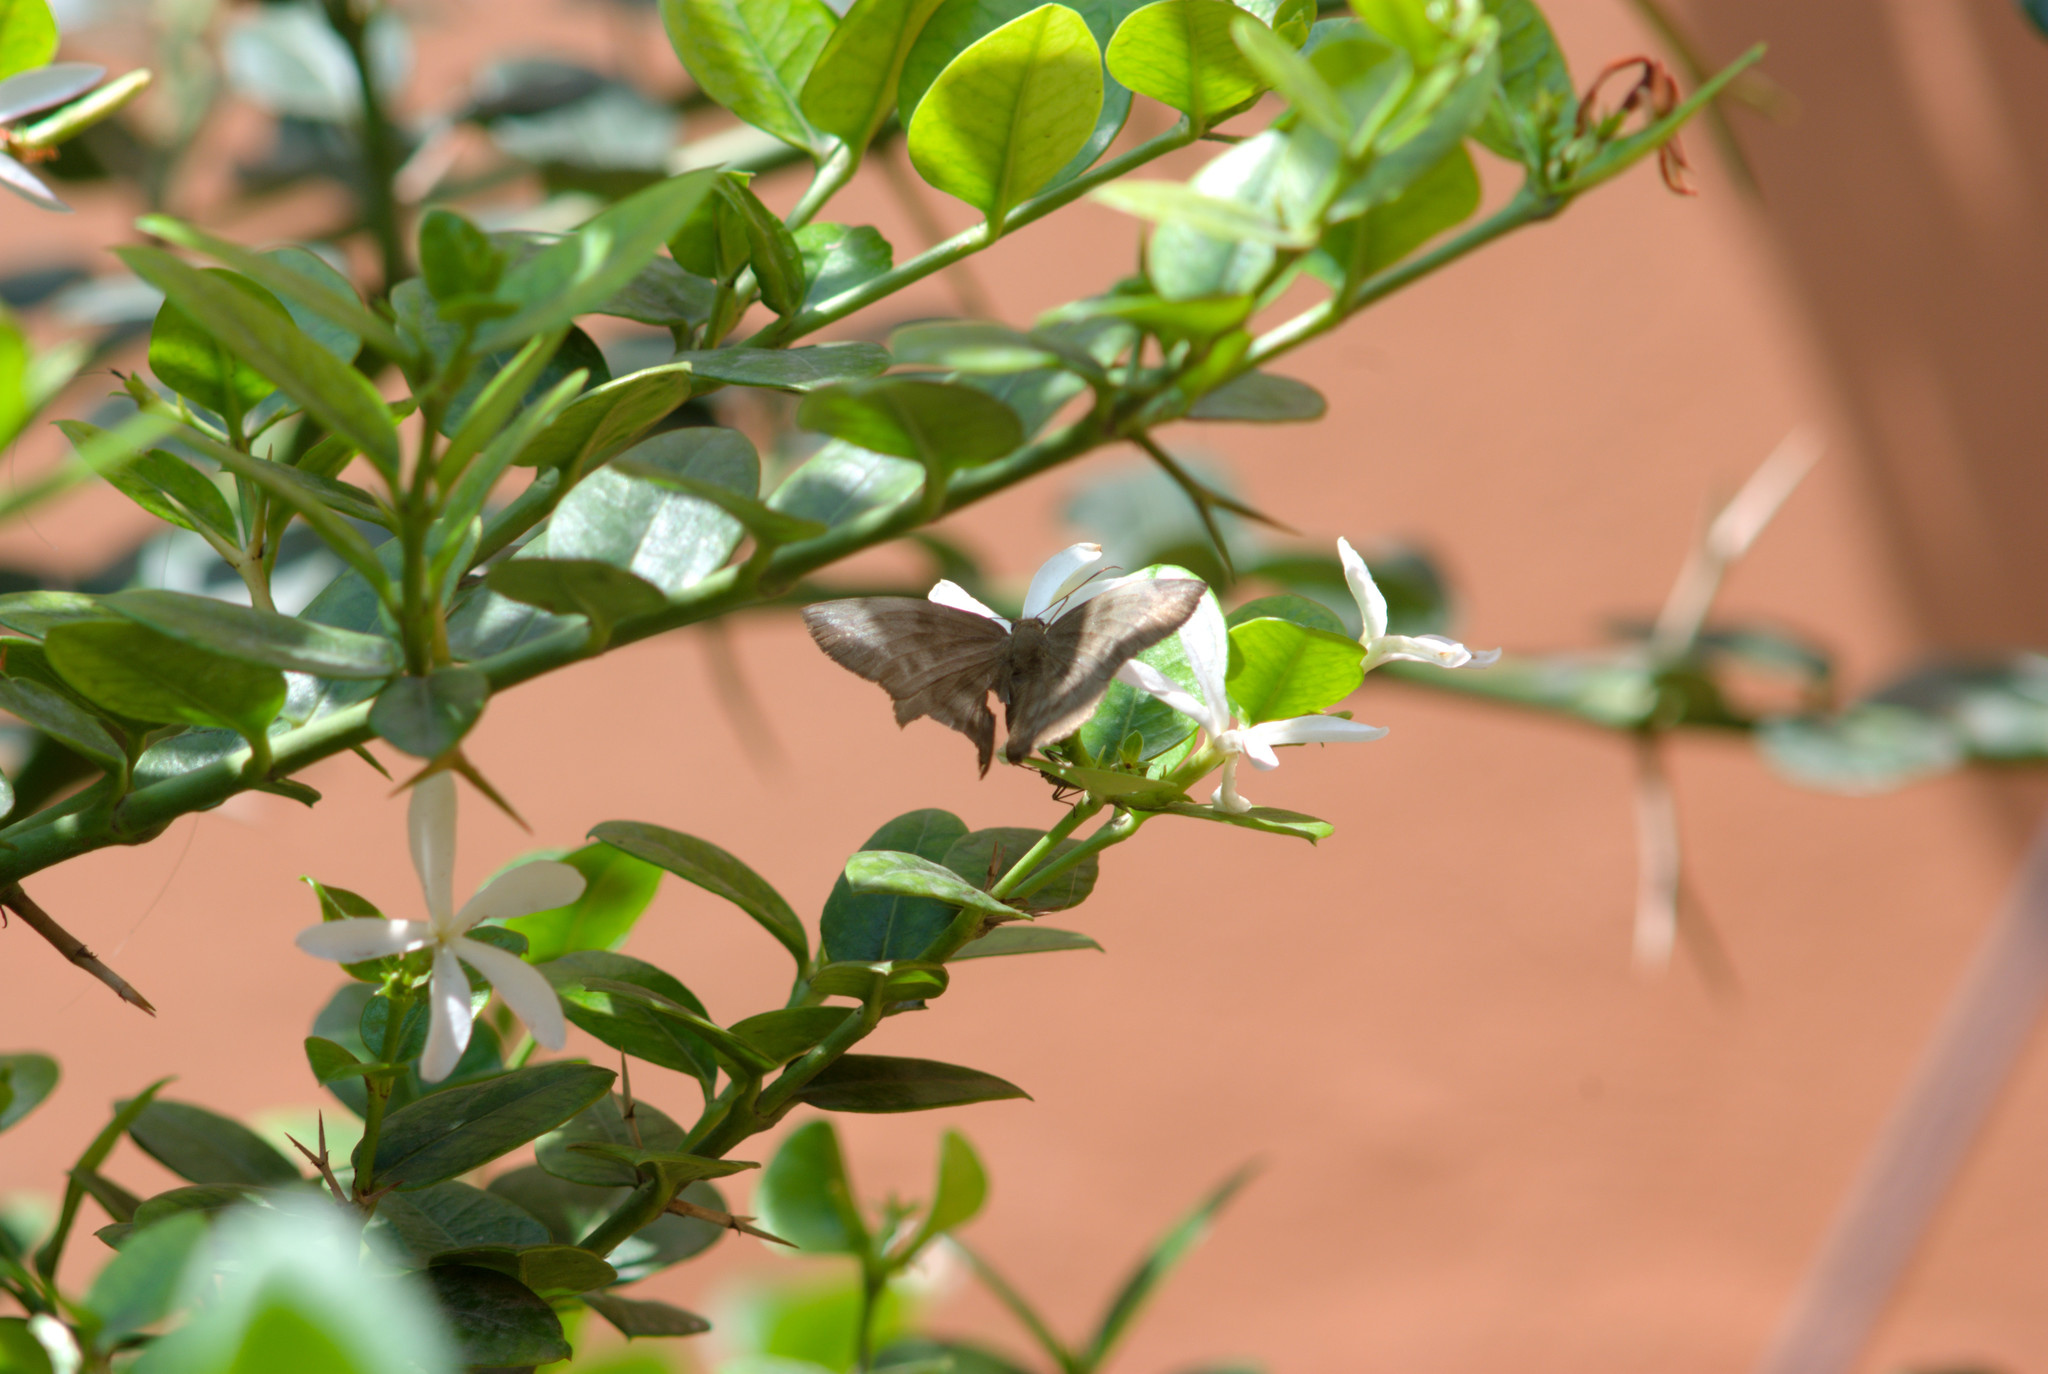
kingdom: Animalia
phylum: Arthropoda
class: Insecta
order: Lepidoptera
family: Hesperiidae
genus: Achlyodes
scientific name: Achlyodes pallida
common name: Pale sicklewing
